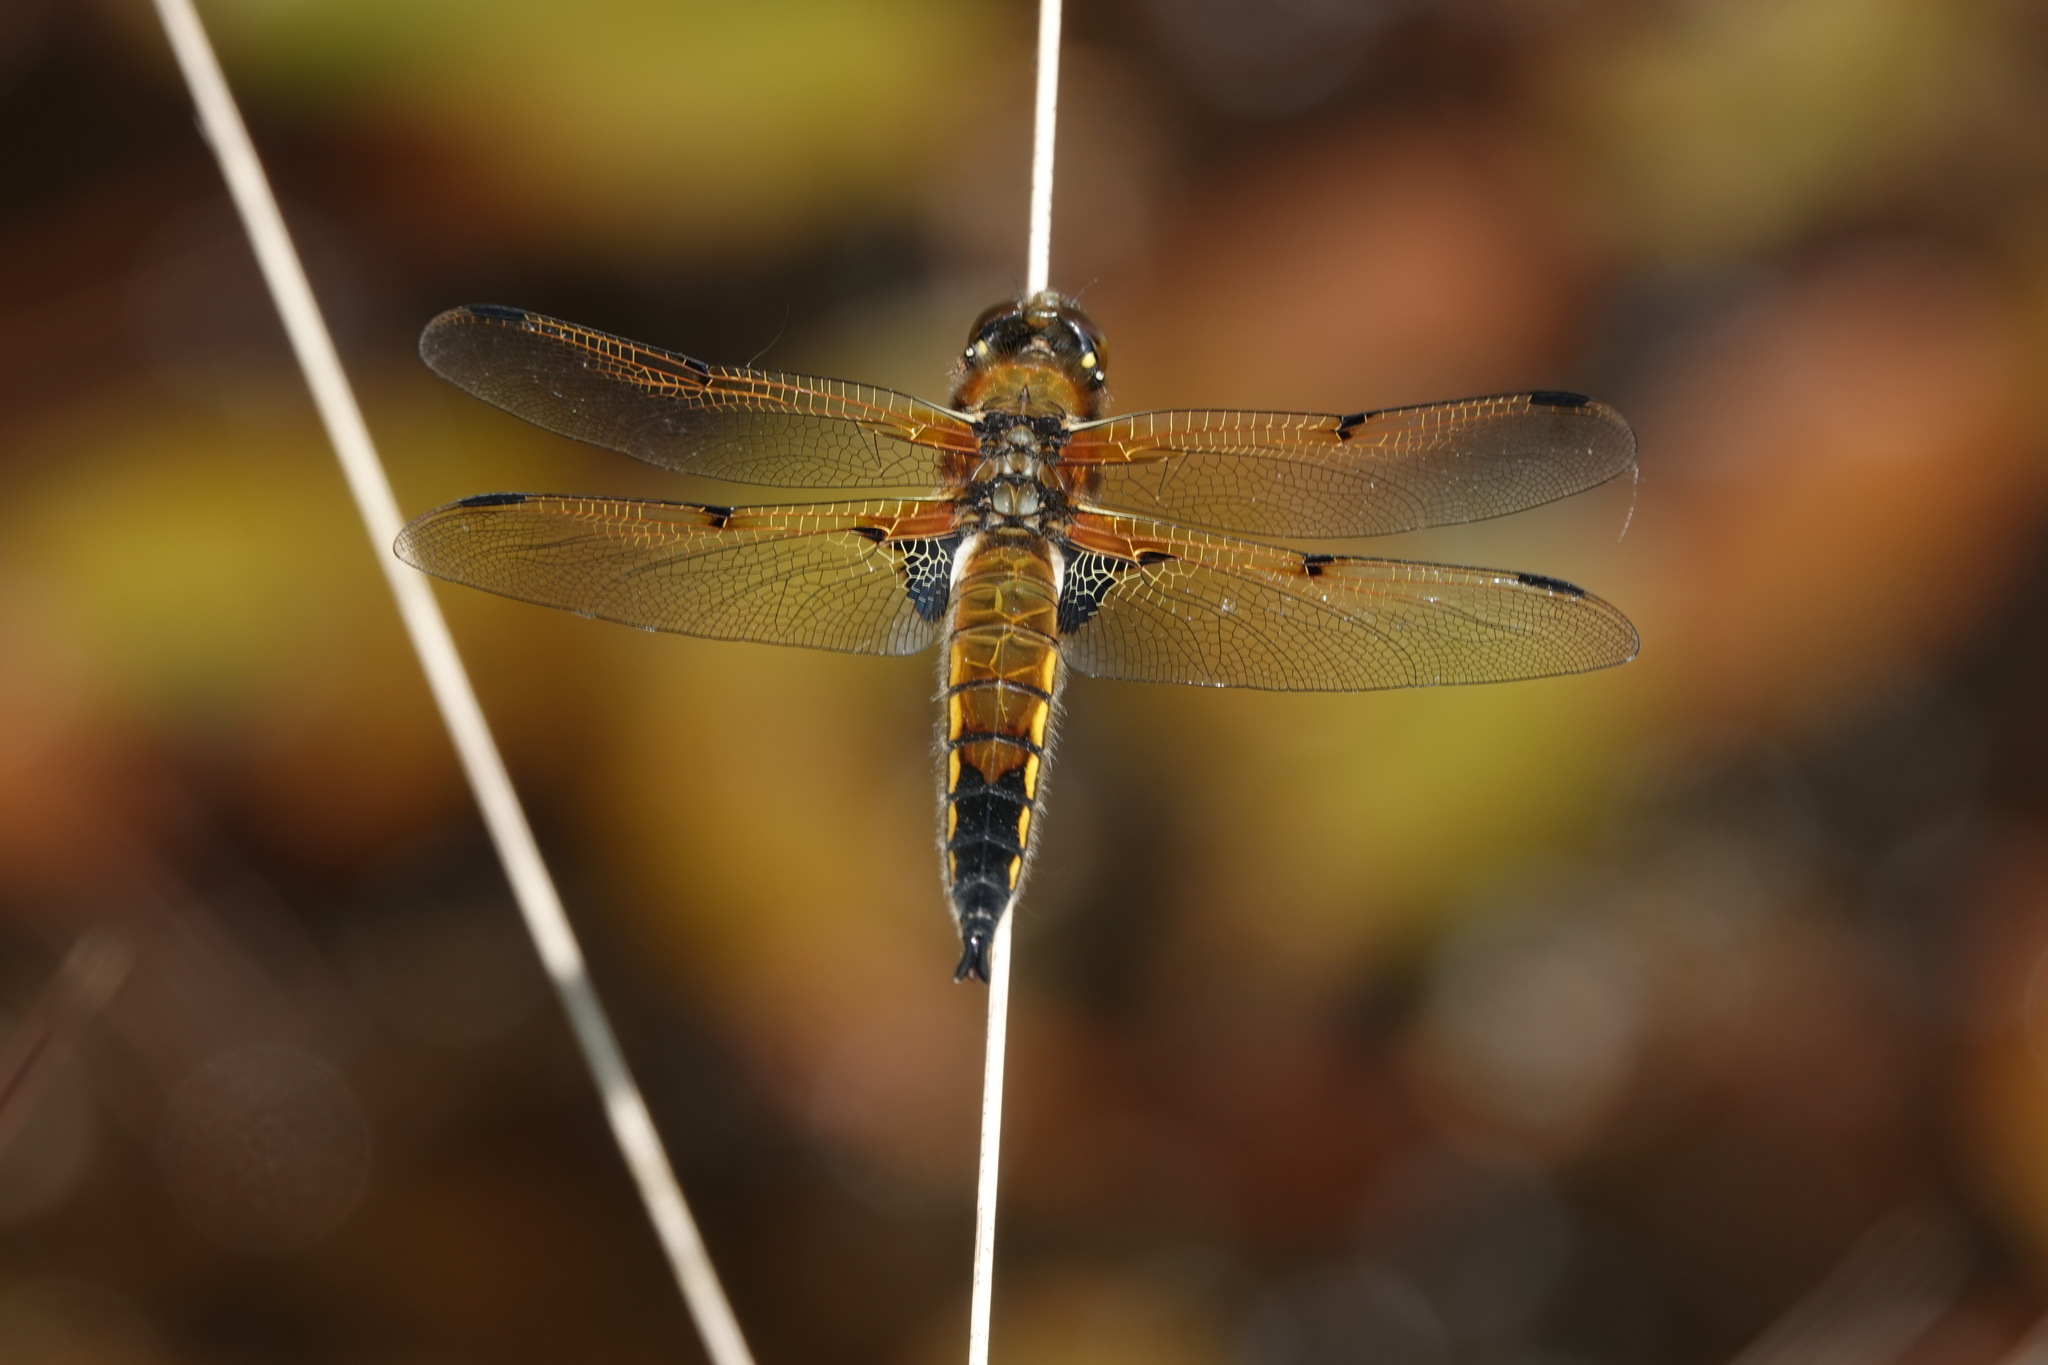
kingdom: Animalia
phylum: Arthropoda
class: Insecta
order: Odonata
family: Libellulidae
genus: Libellula
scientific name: Libellula quadrimaculata
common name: Four-spotted chaser
